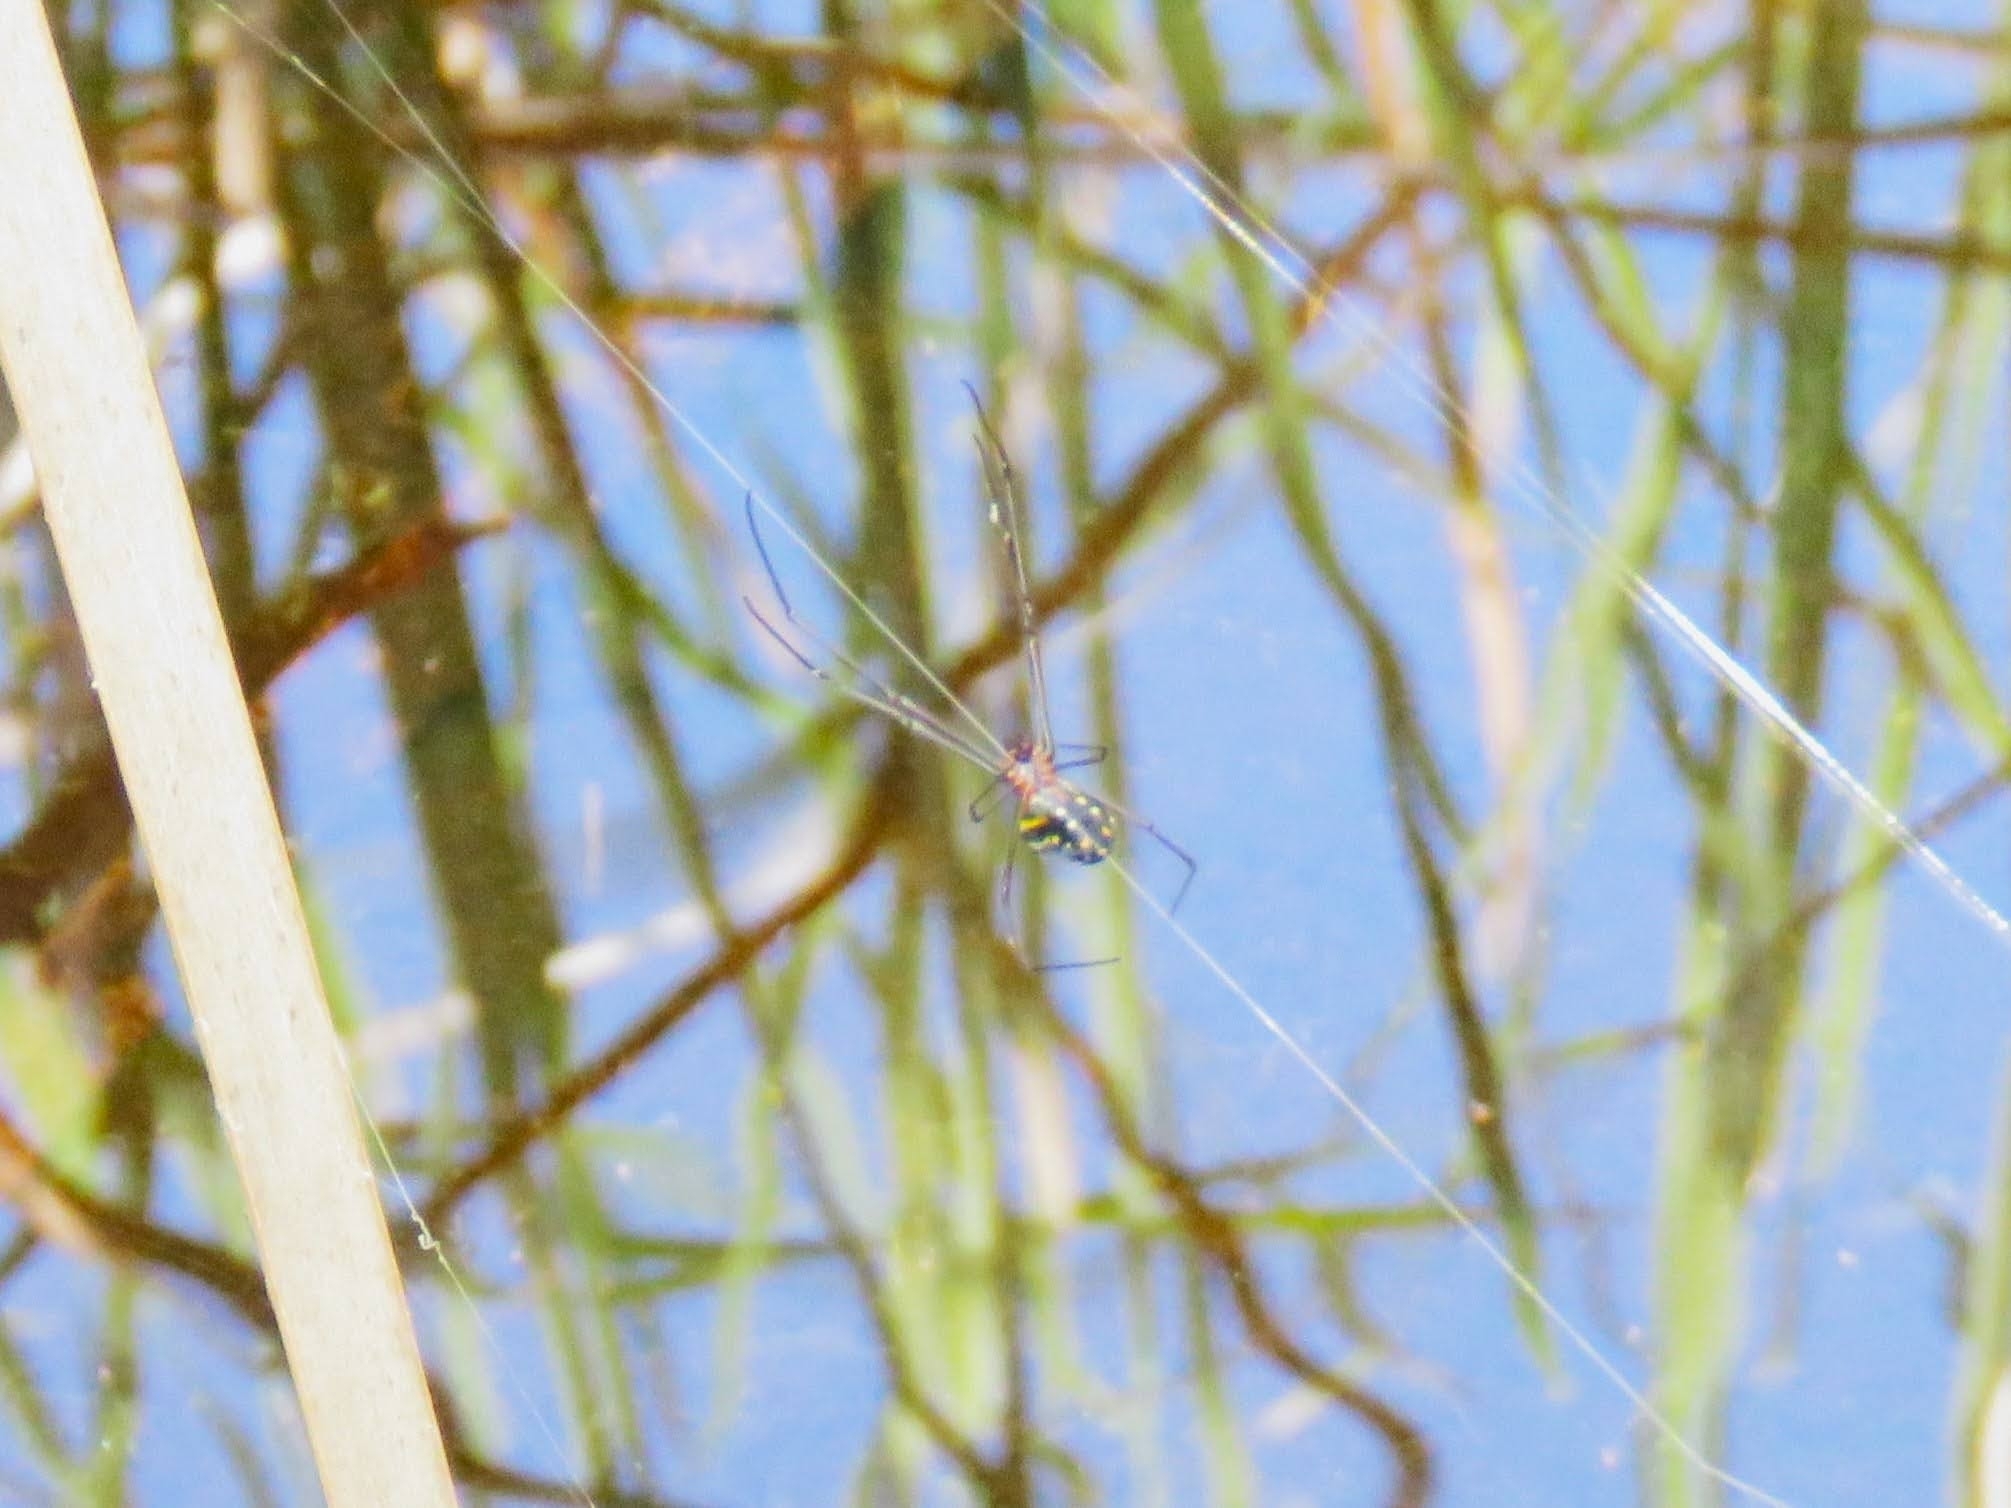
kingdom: Animalia
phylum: Arthropoda
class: Arachnida
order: Araneae
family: Tetragnathidae
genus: Leucauge
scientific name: Leucauge argyra
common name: Longjawed orb weavers
